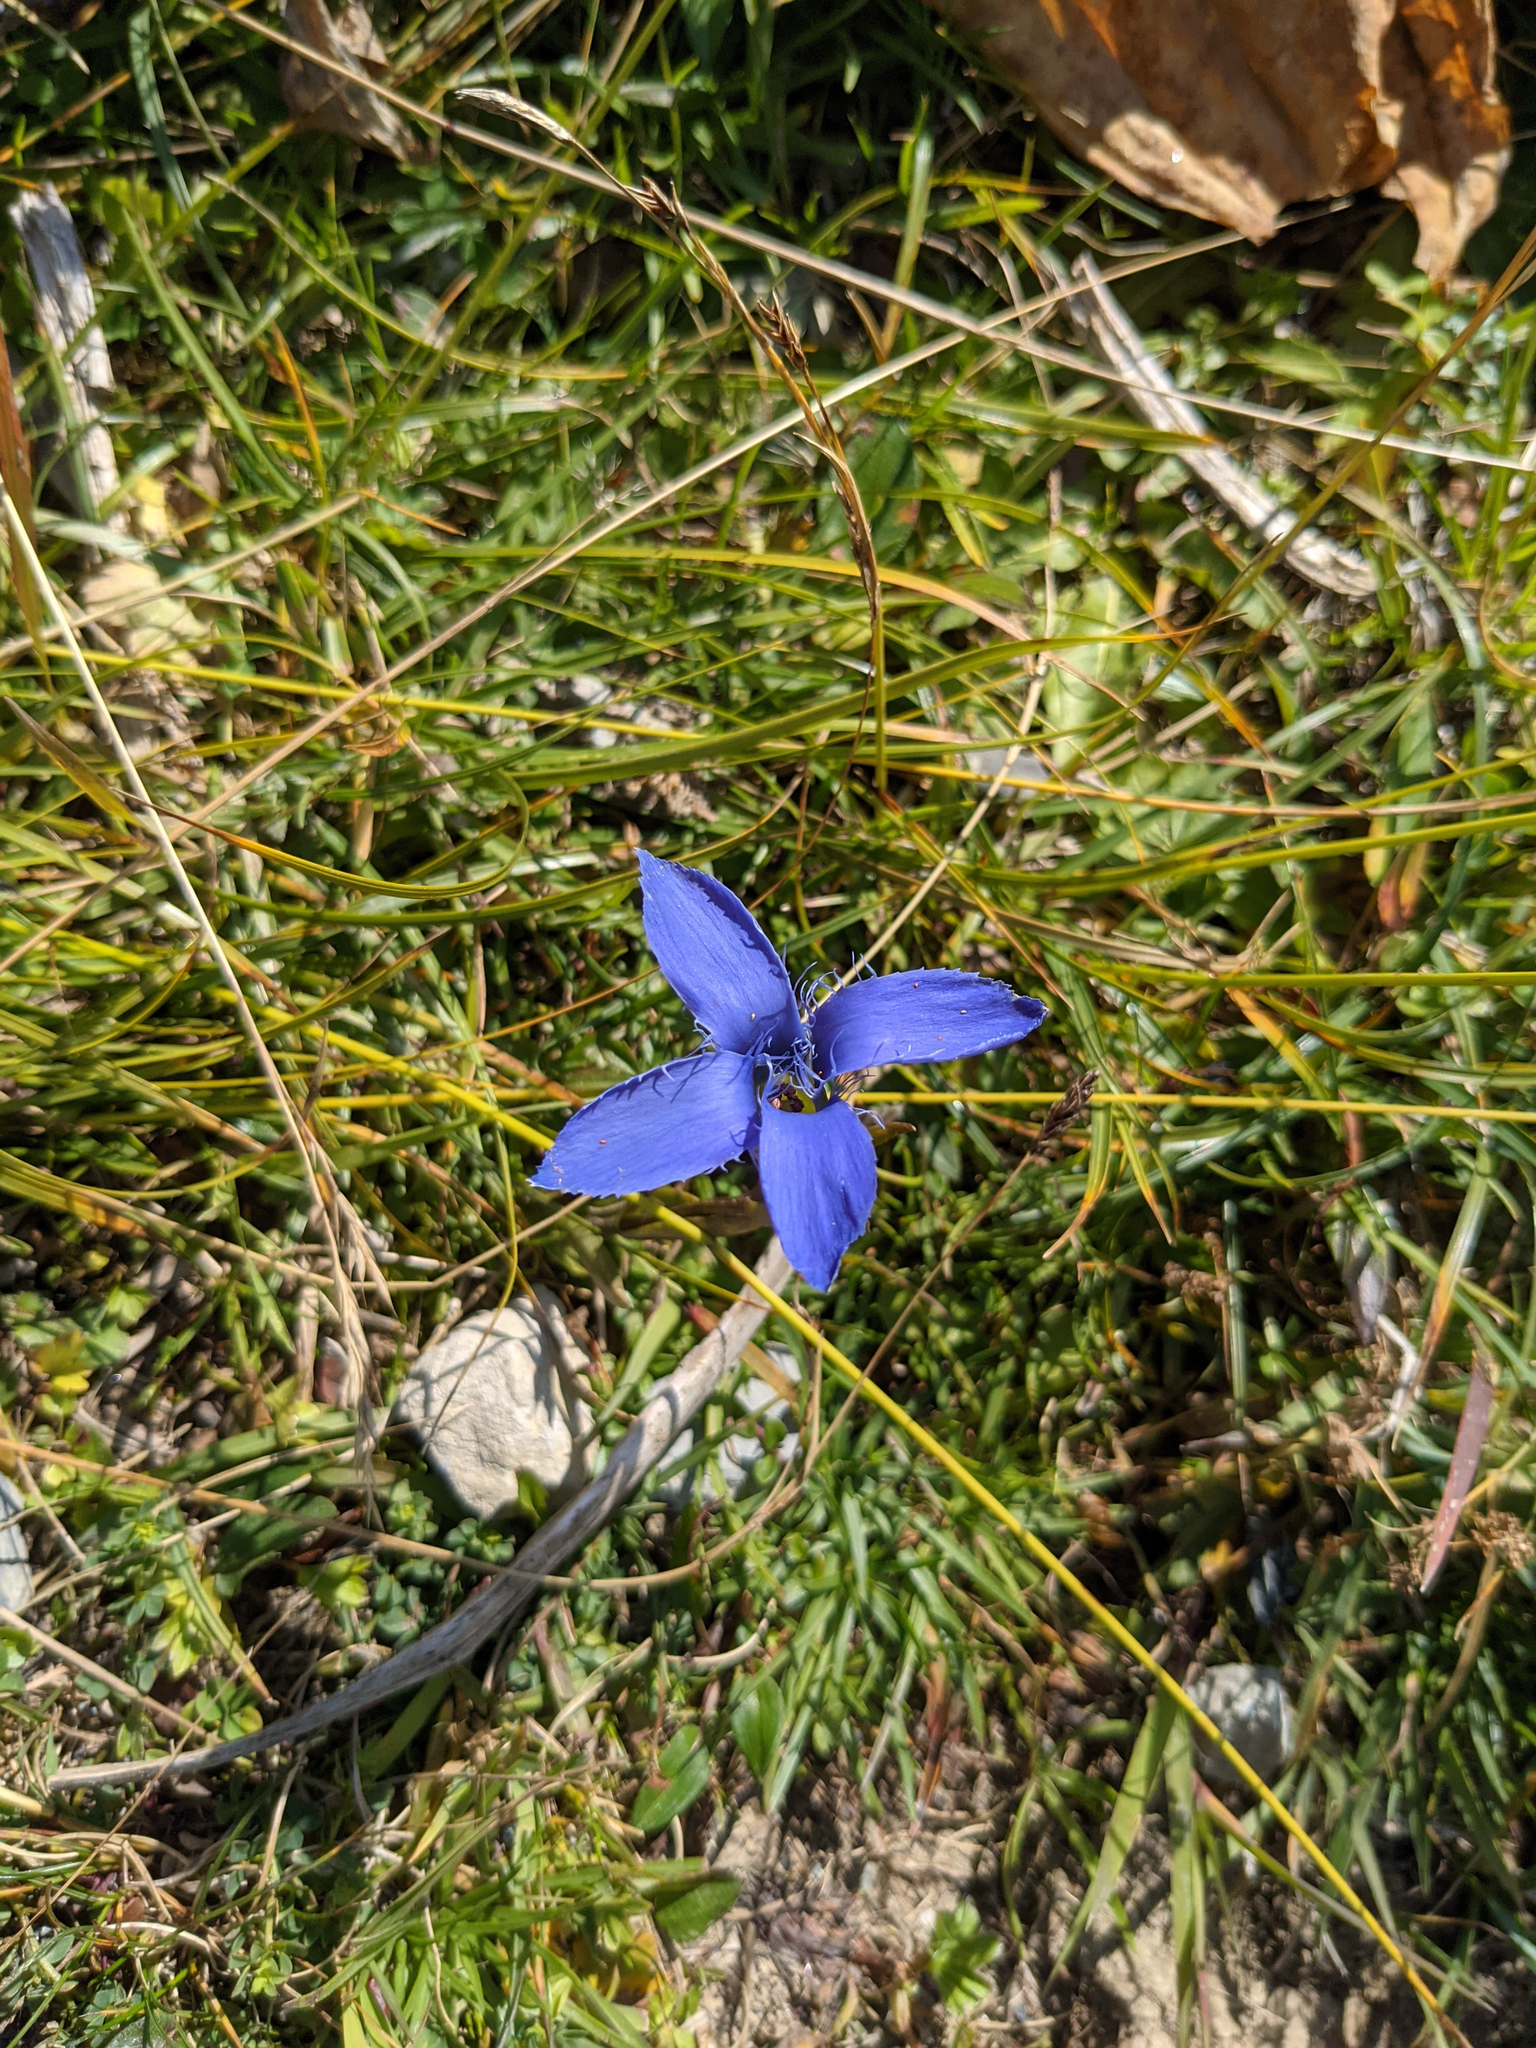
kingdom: Plantae
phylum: Tracheophyta
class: Magnoliopsida
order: Gentianales
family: Gentianaceae
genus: Gentianopsis
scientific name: Gentianopsis ciliata
